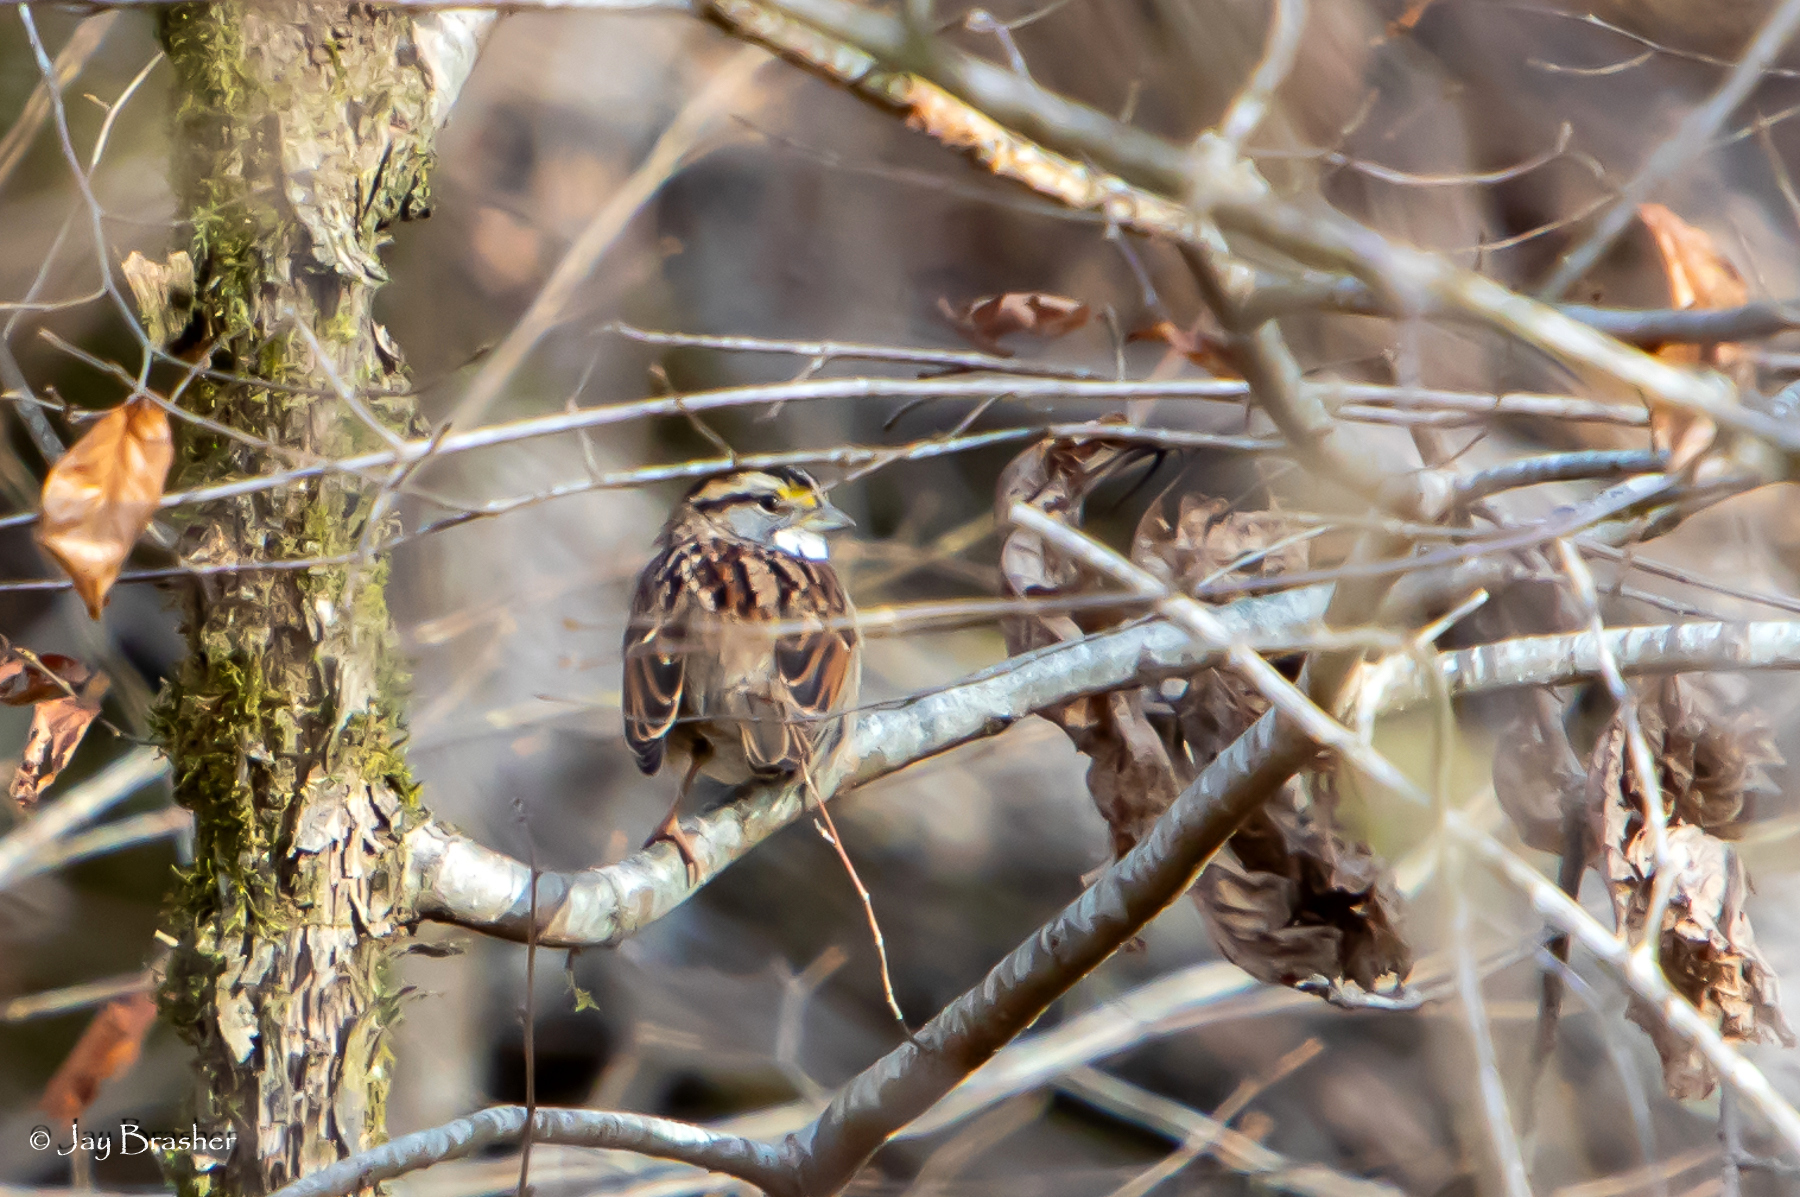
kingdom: Animalia
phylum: Chordata
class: Aves
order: Passeriformes
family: Passerellidae
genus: Zonotrichia
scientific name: Zonotrichia albicollis
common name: White-throated sparrow
